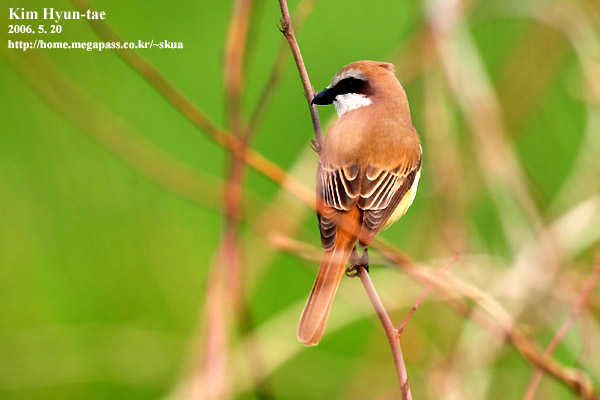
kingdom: Animalia
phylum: Chordata
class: Aves
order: Passeriformes
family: Laniidae
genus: Lanius
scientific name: Lanius cristatus
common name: Brown shrike
